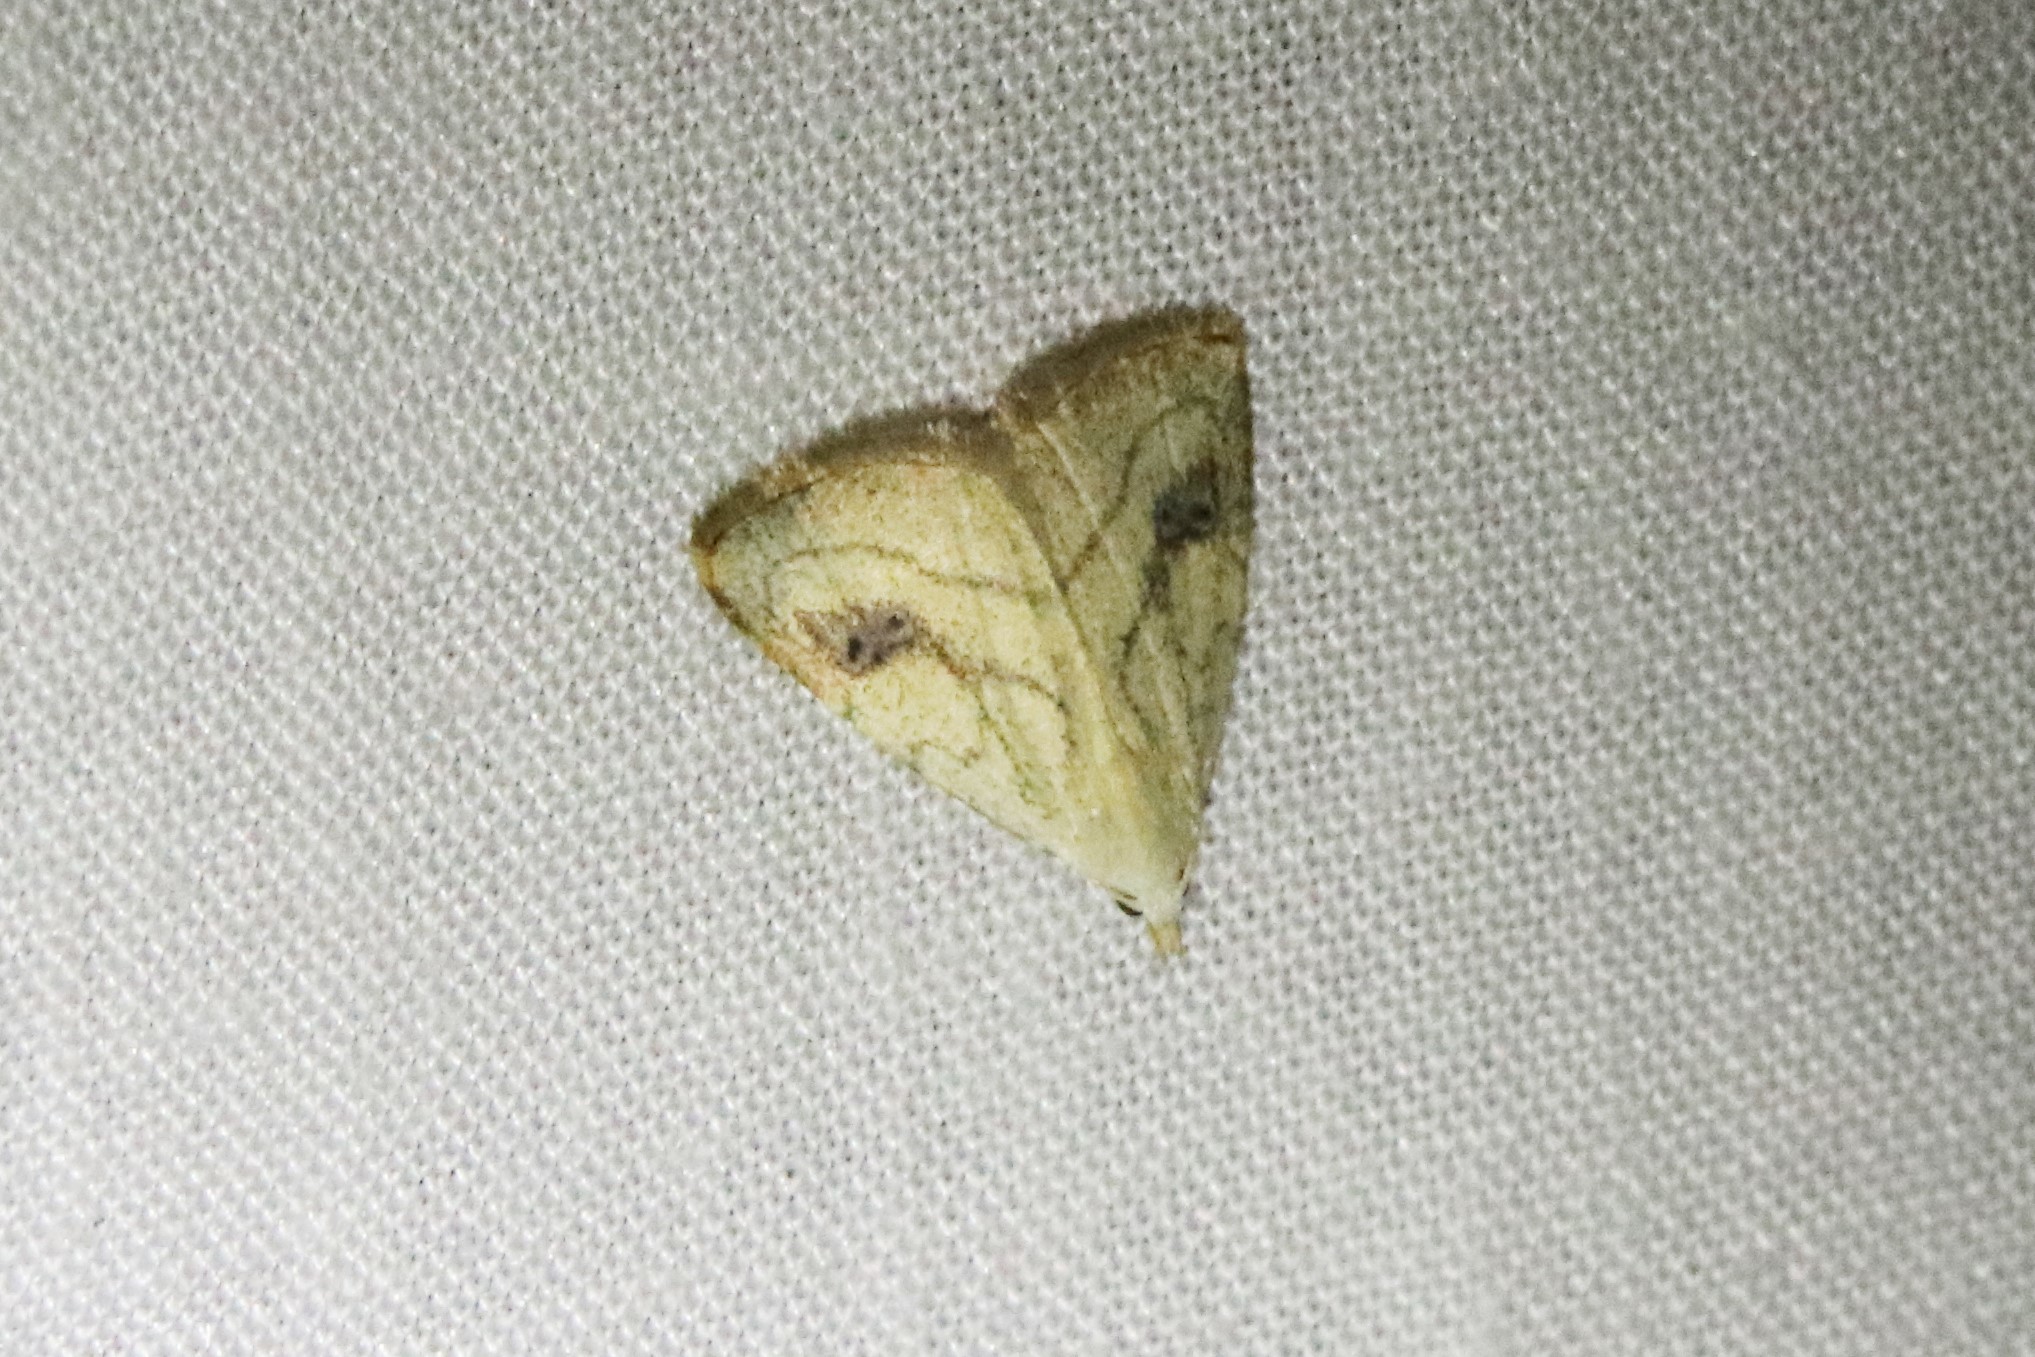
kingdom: Animalia
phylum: Arthropoda
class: Insecta
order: Lepidoptera
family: Erebidae
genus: Rivula
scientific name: Rivula propinqualis
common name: Spotted grass moth
